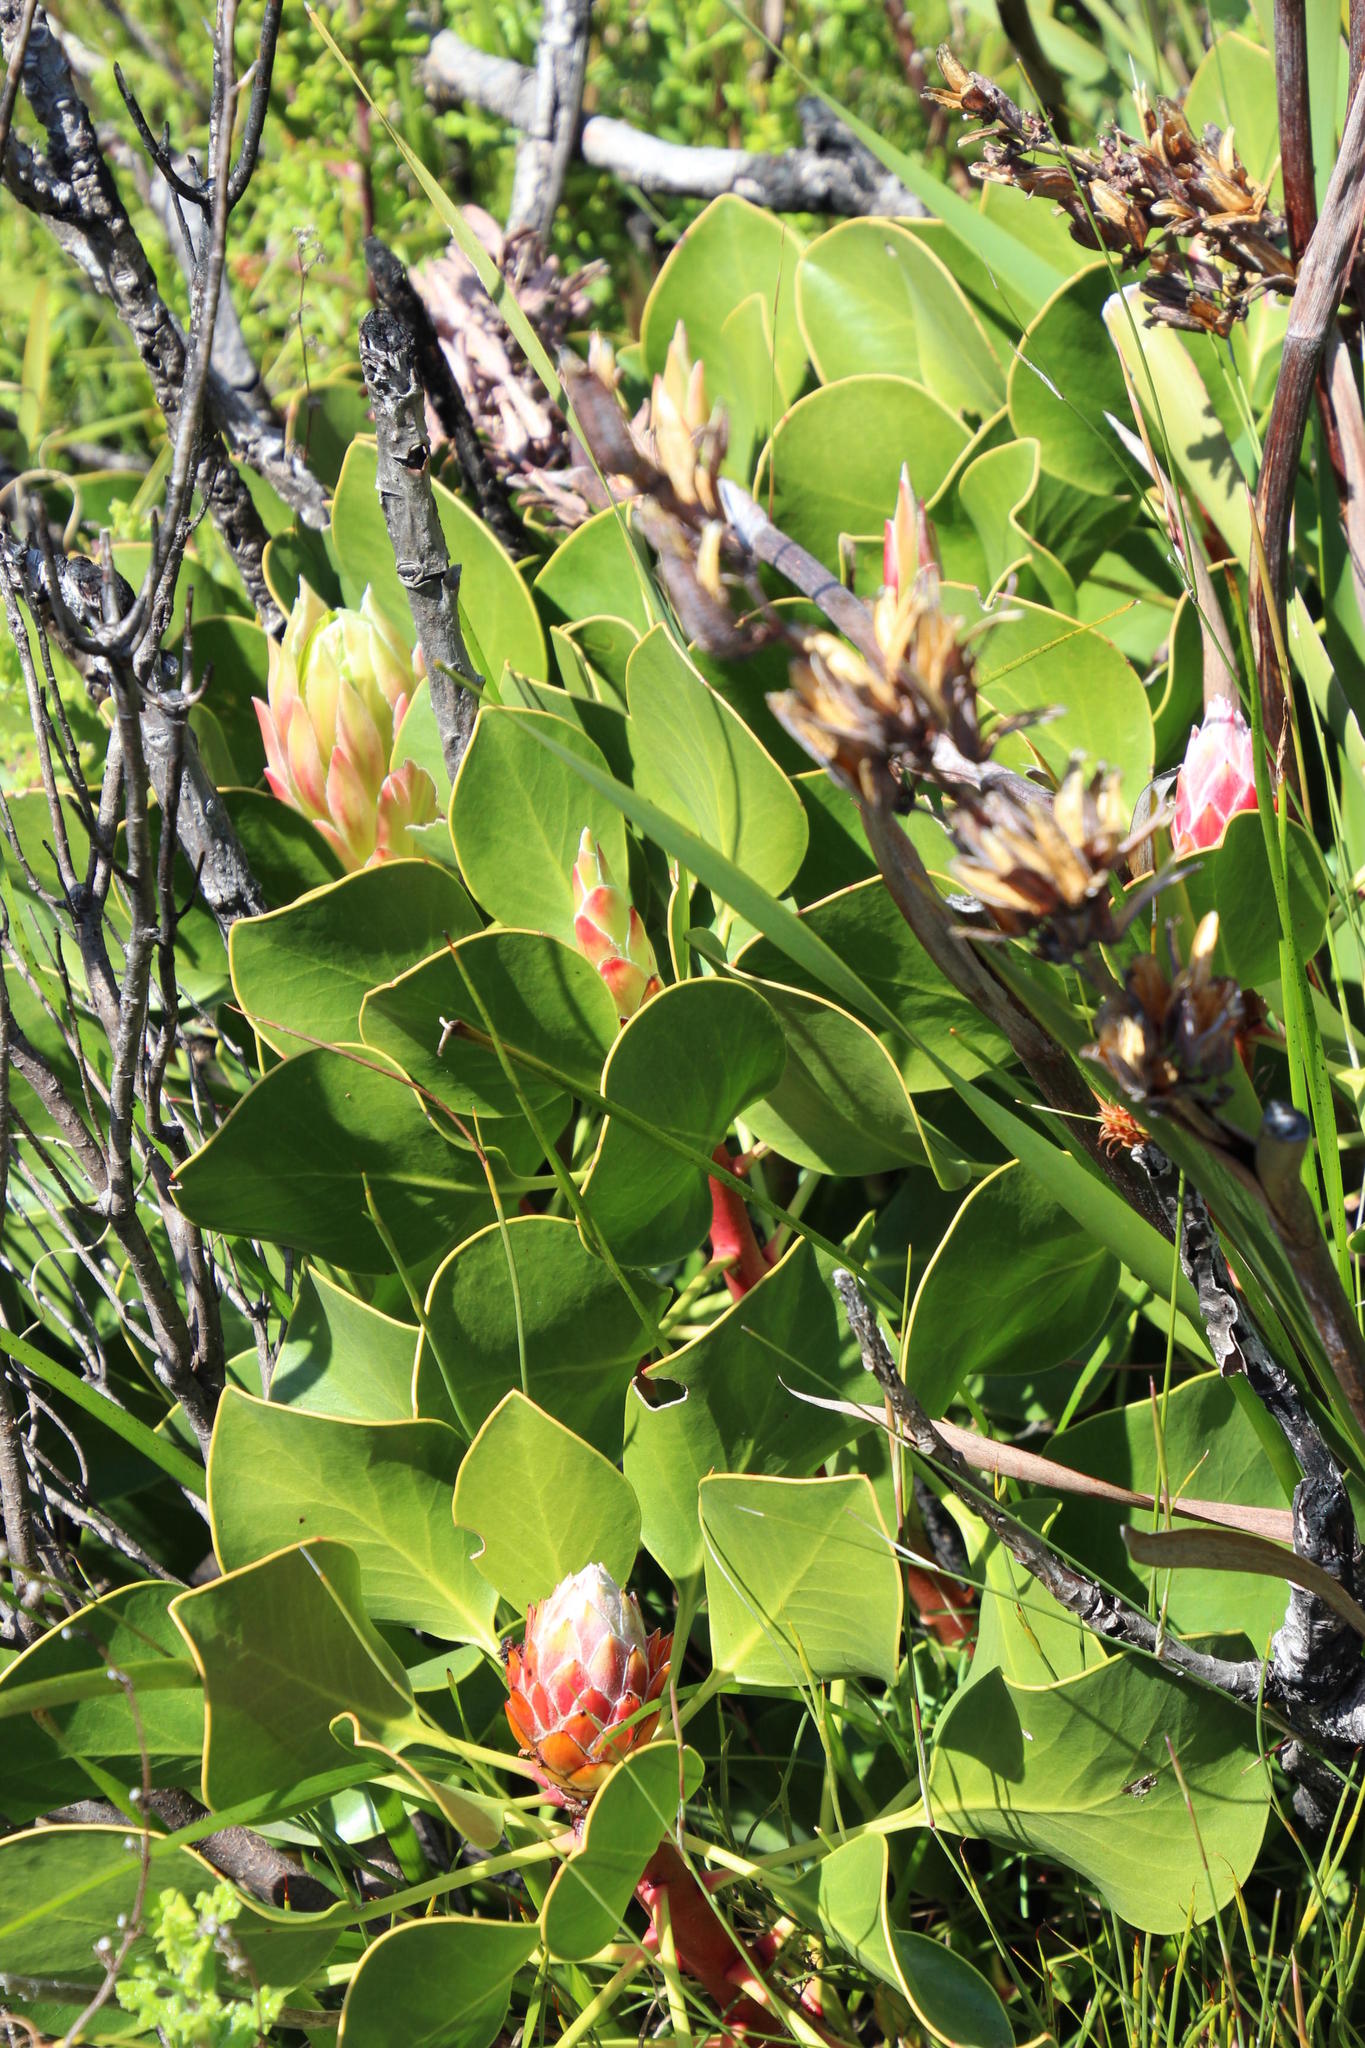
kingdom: Plantae
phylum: Tracheophyta
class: Magnoliopsida
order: Proteales
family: Proteaceae
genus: Protea
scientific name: Protea cynaroides
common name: King protea
